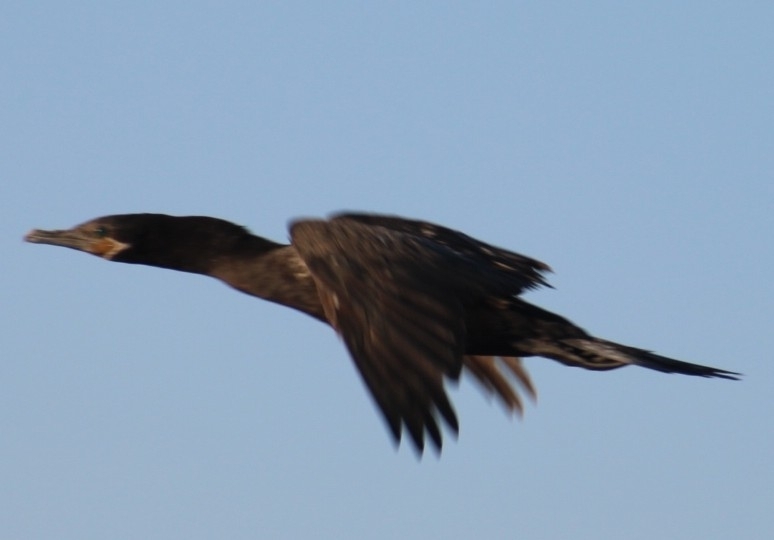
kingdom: Animalia
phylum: Chordata
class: Aves
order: Suliformes
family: Phalacrocoracidae
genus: Phalacrocorax
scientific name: Phalacrocorax brasilianus
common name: Neotropic cormorant
